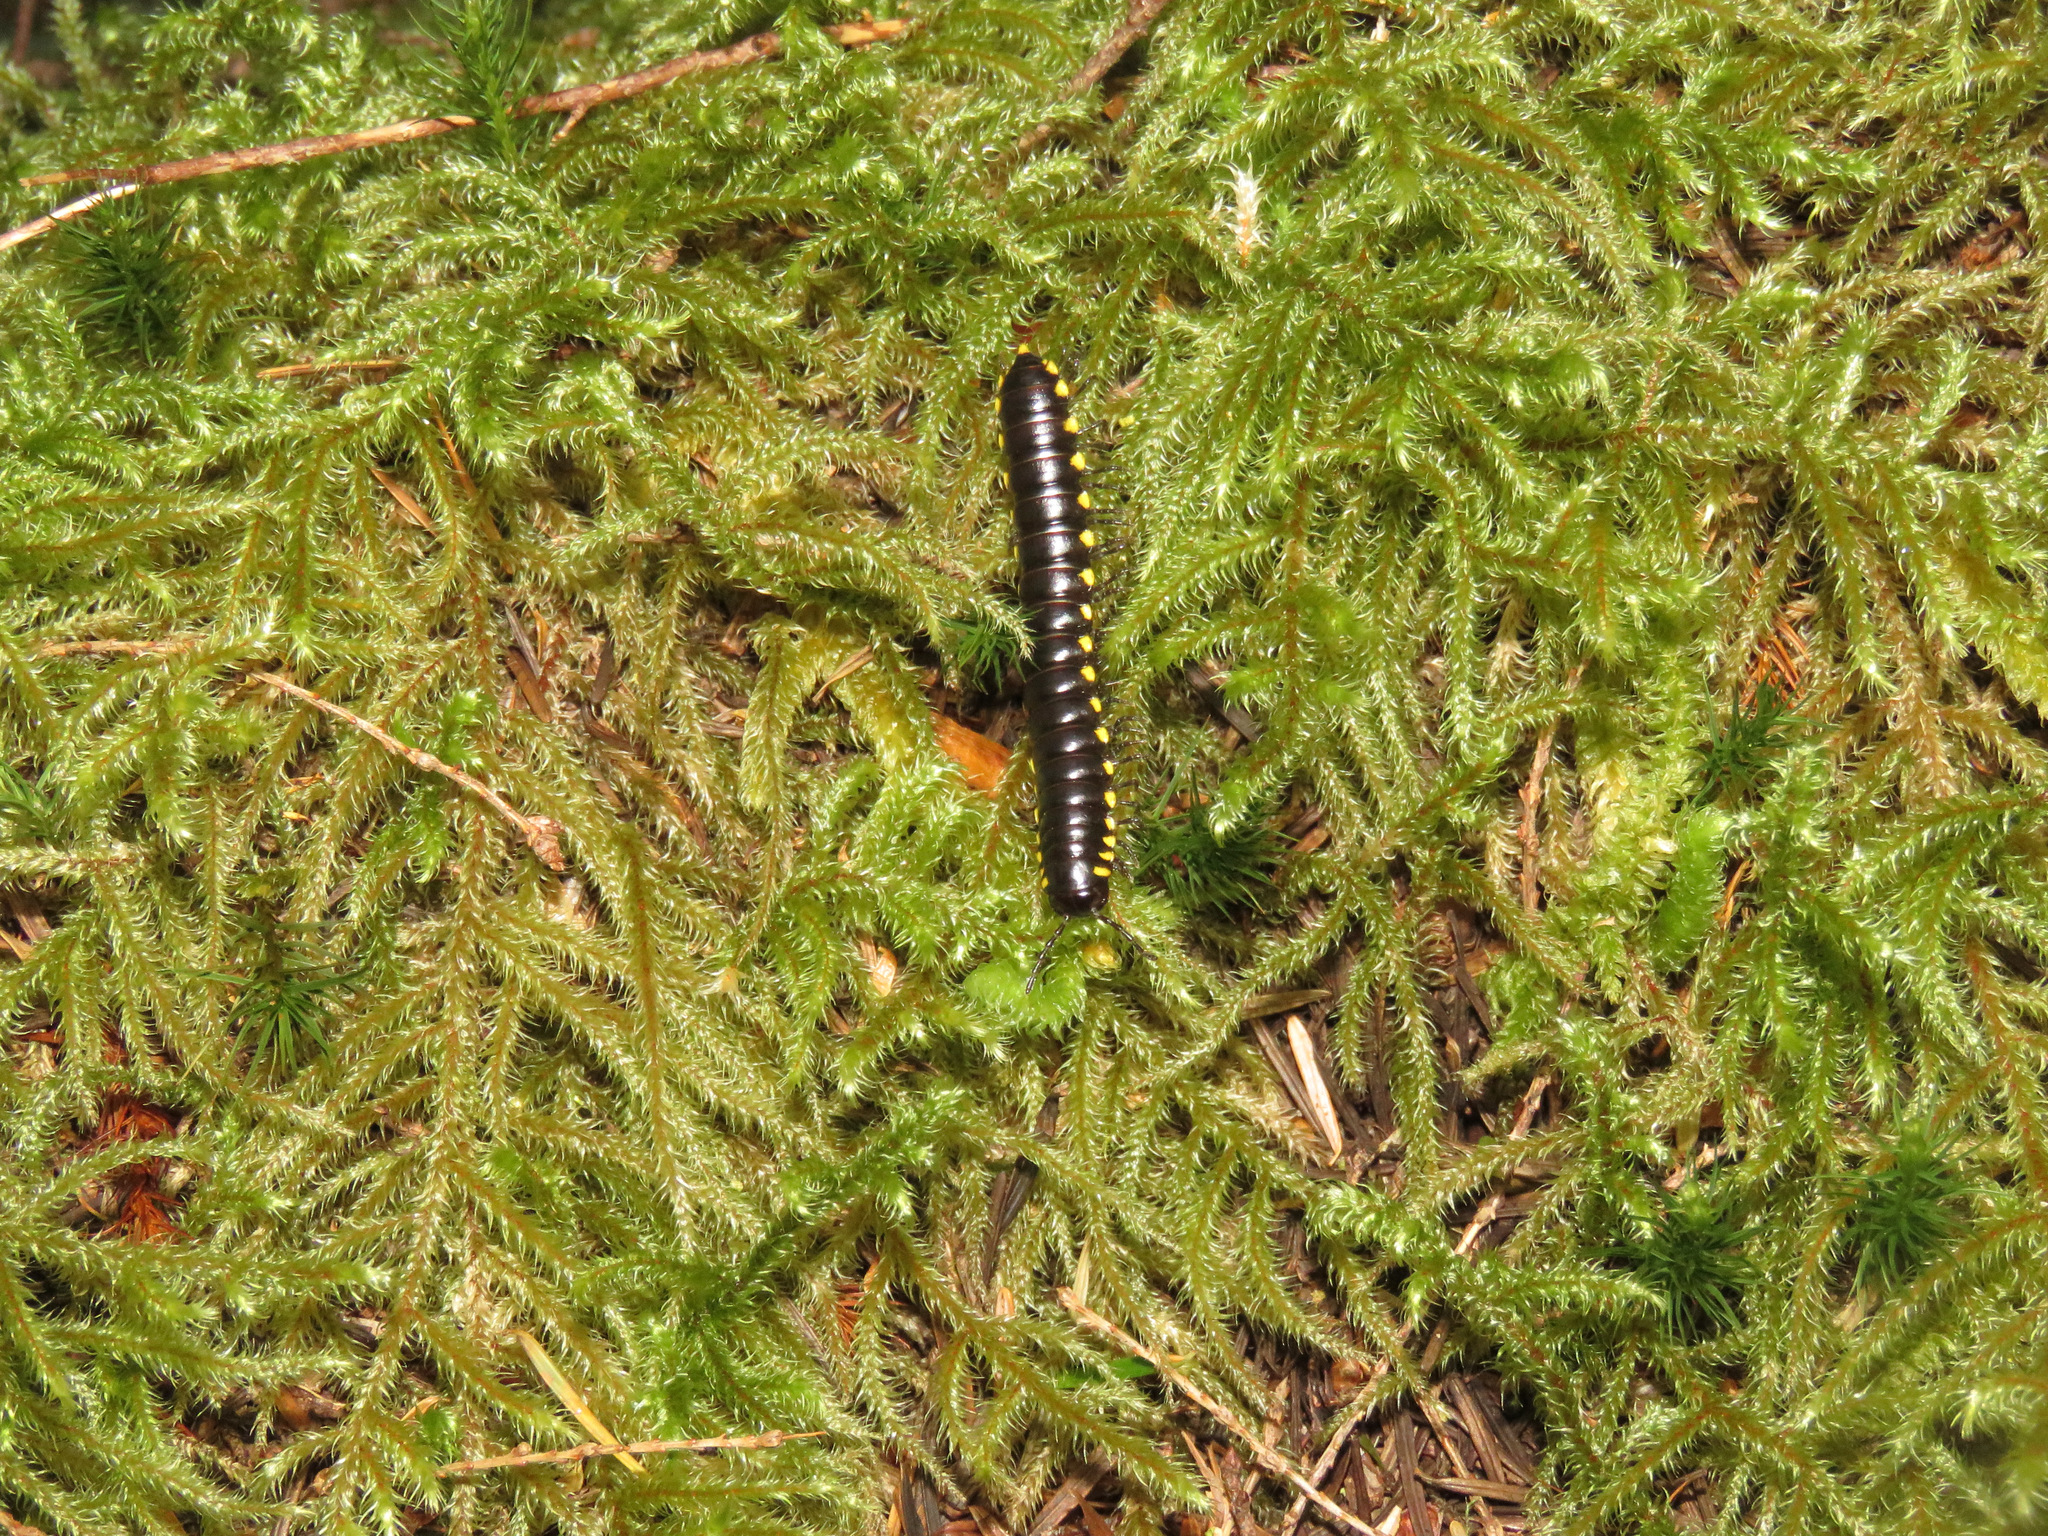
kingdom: Animalia
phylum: Arthropoda
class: Diplopoda
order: Polydesmida
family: Xystodesmidae
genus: Harpaphe
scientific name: Harpaphe haydeniana
